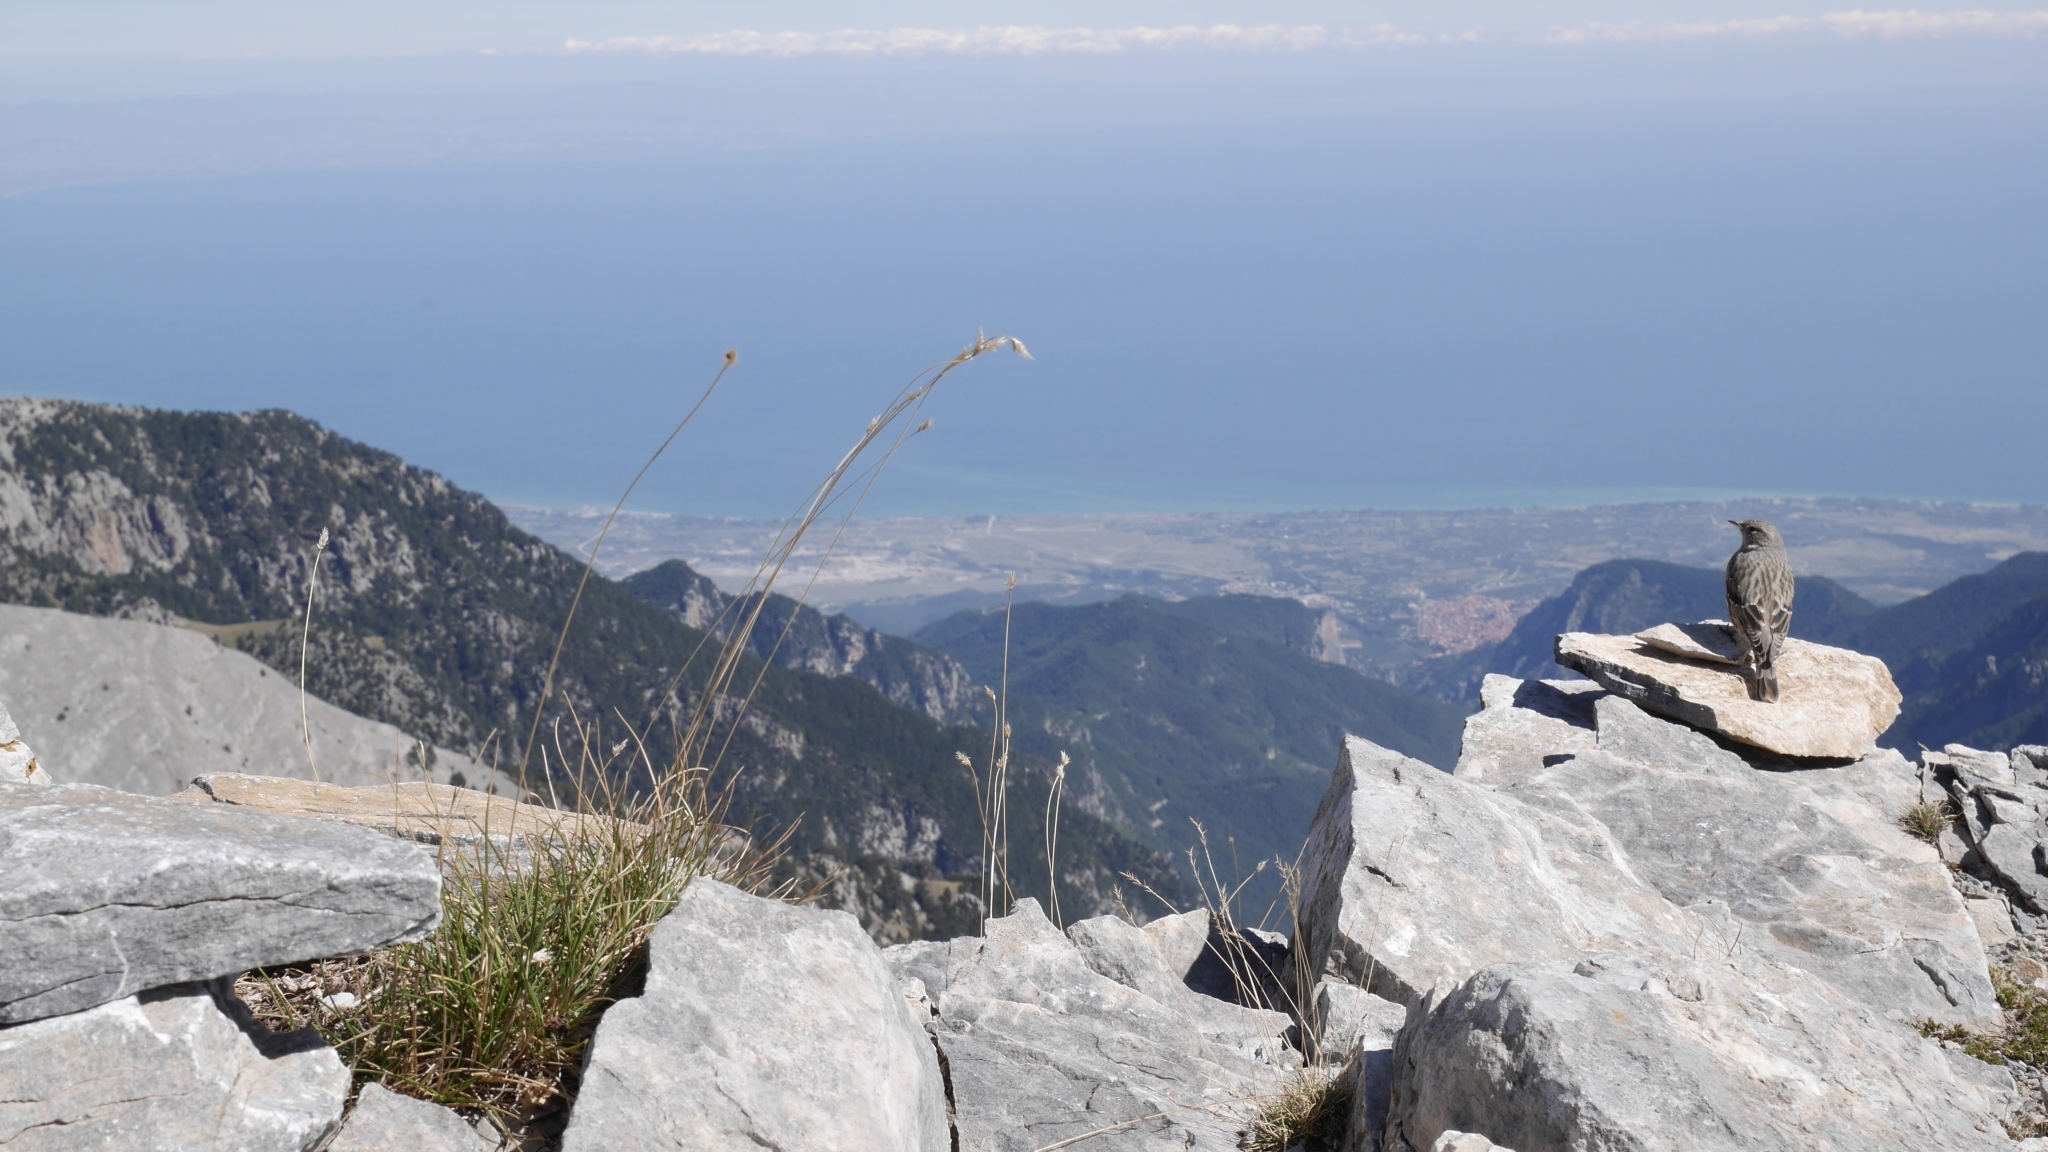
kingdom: Animalia
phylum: Chordata
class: Aves
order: Passeriformes
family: Prunellidae
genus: Prunella
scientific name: Prunella collaris
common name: Alpine accentor
